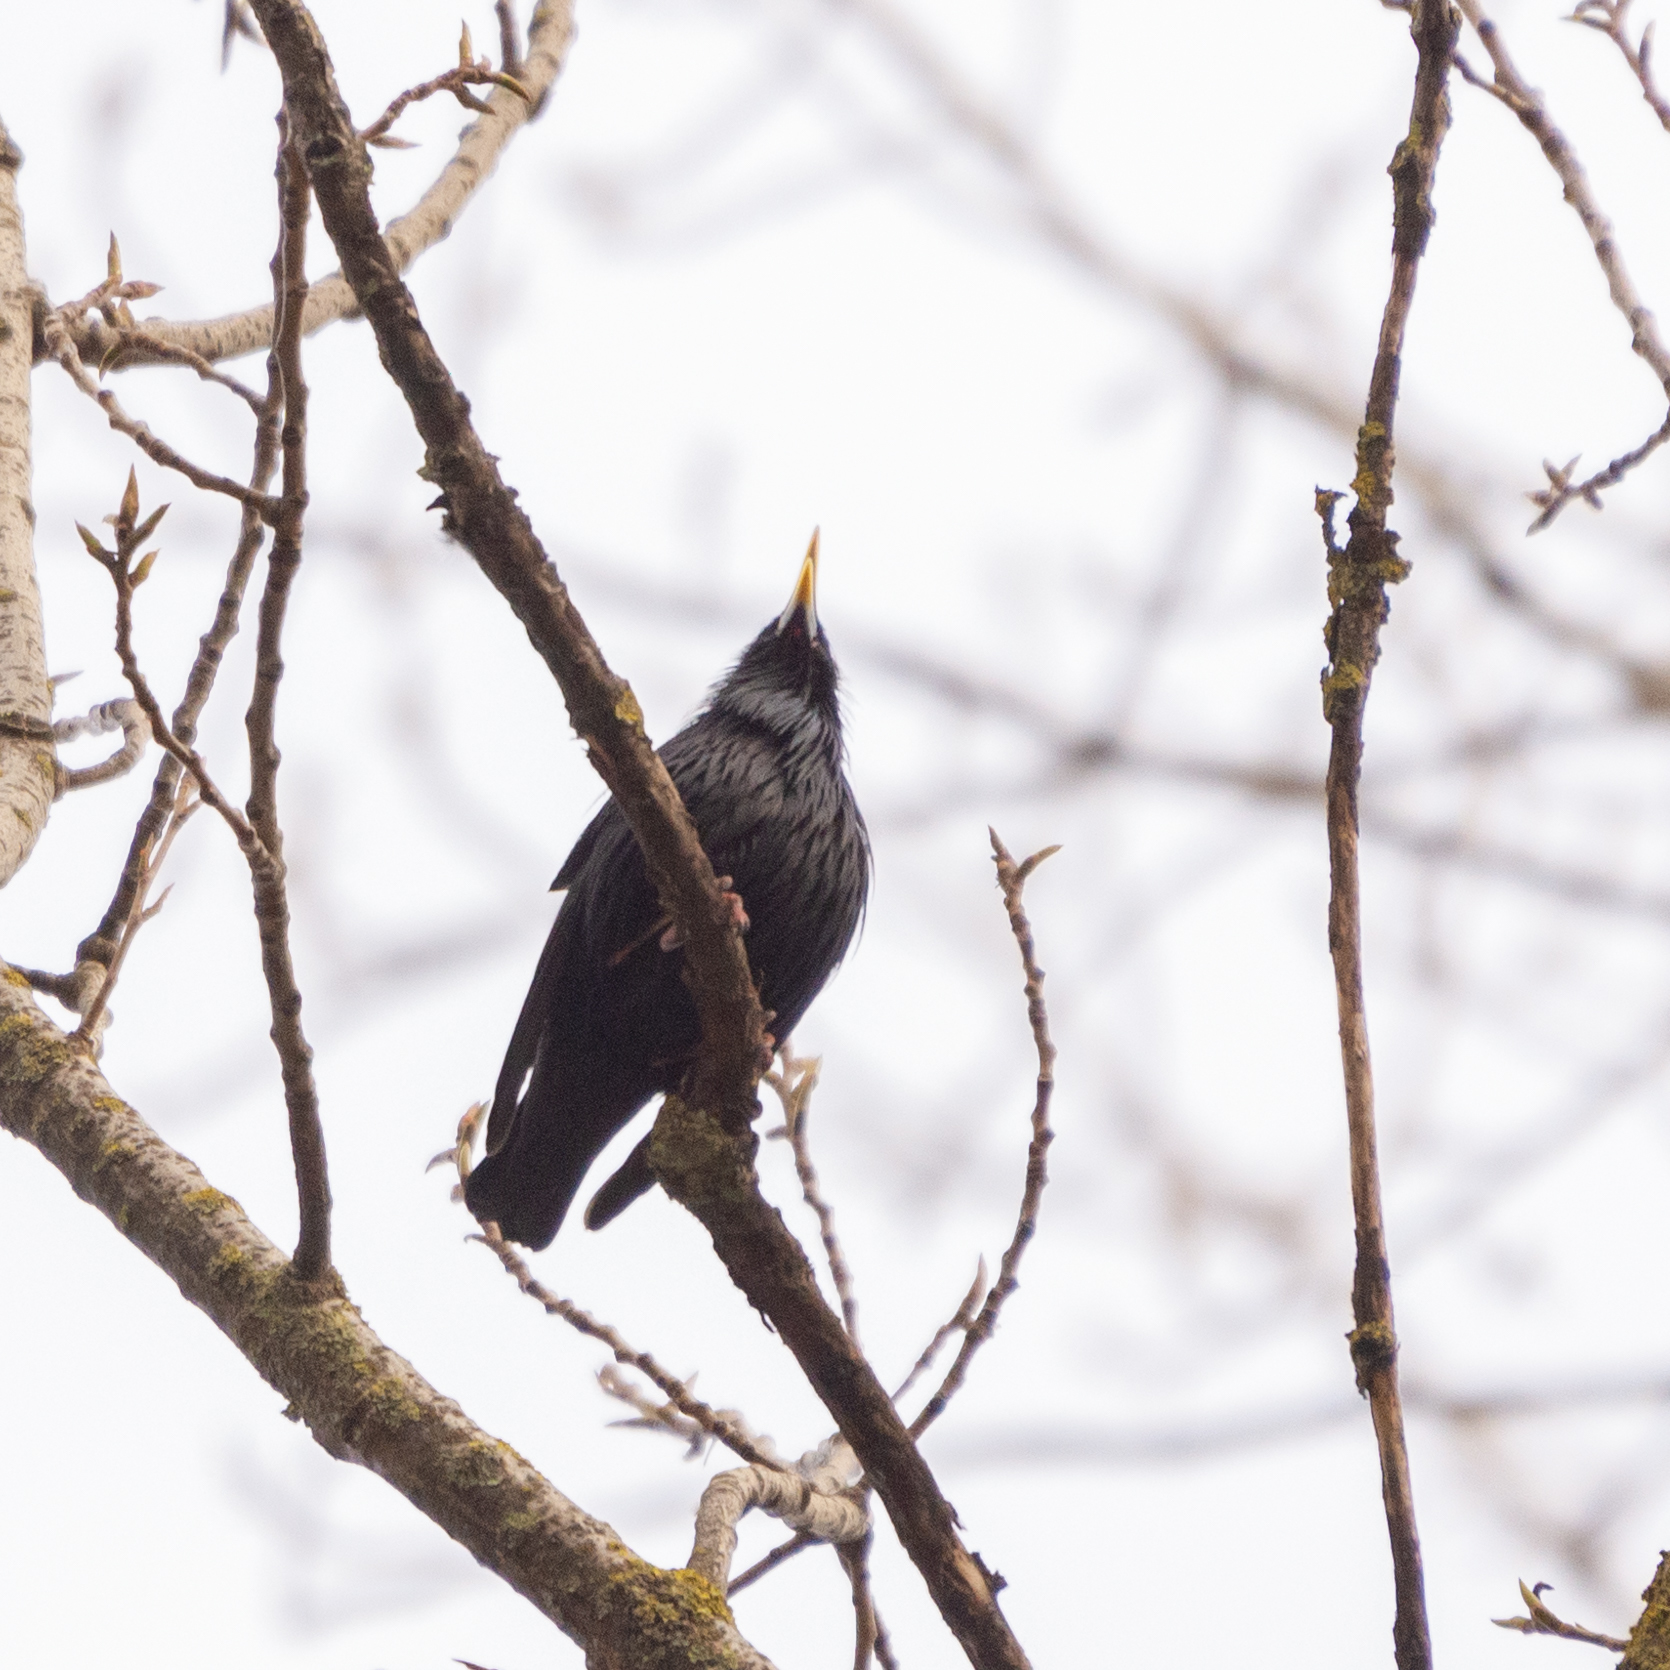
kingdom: Animalia
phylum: Chordata
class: Aves
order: Passeriformes
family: Sturnidae
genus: Sturnus
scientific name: Sturnus unicolor
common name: Spotless starling
